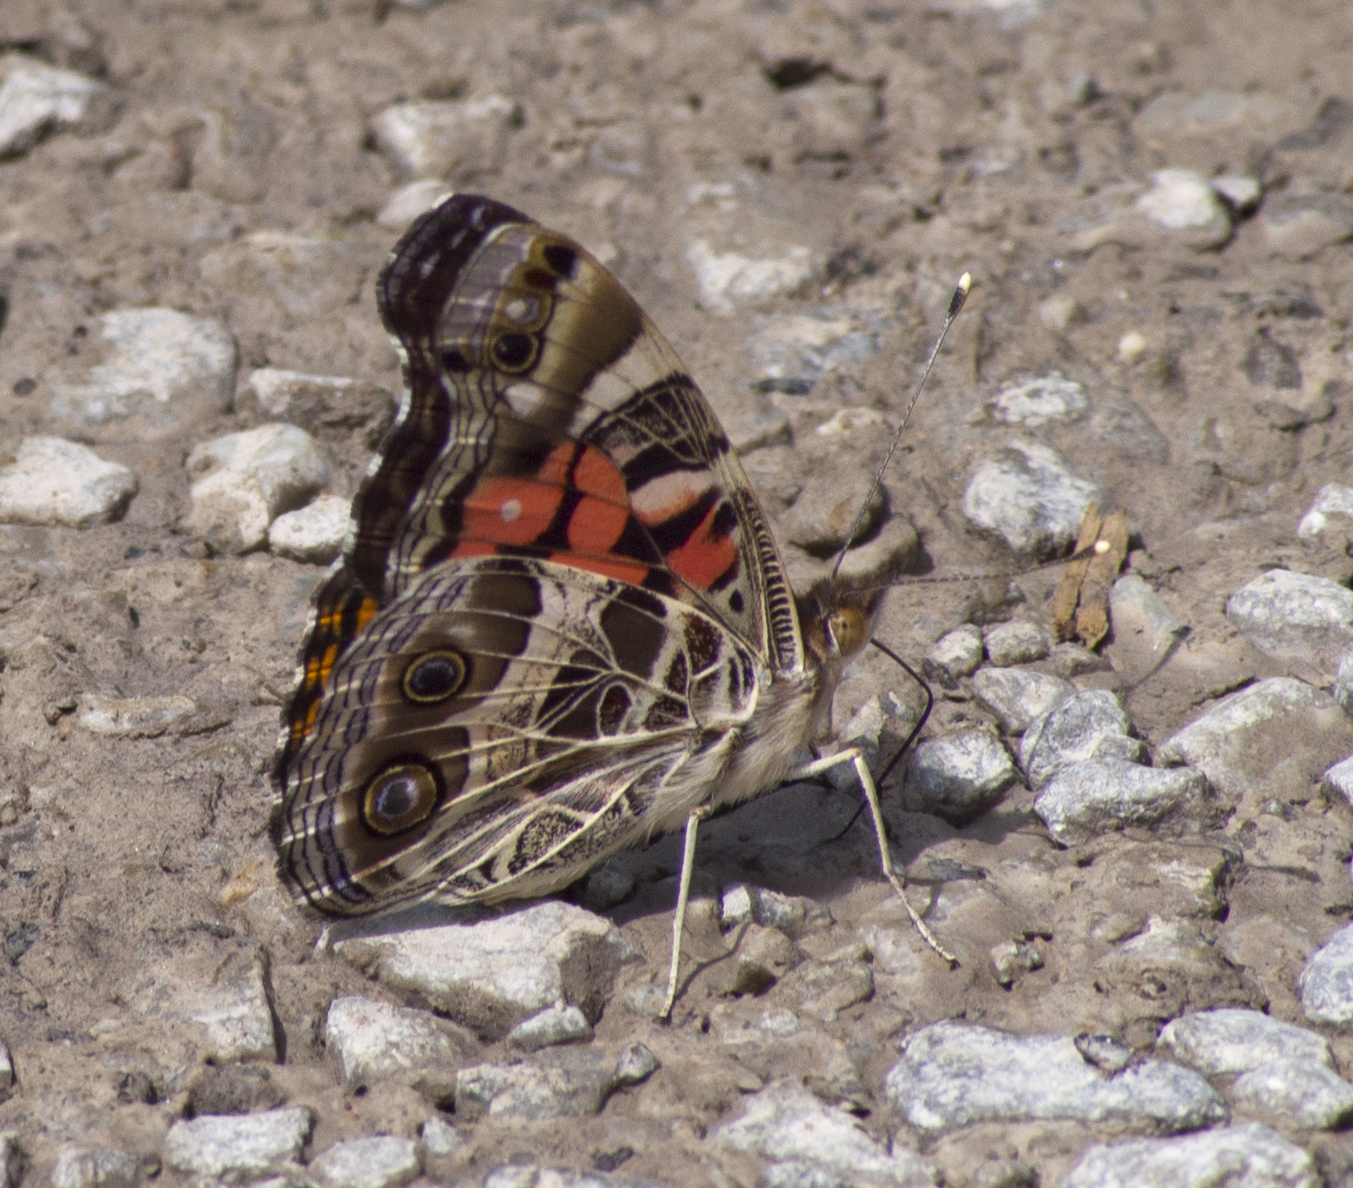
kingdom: Animalia
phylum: Arthropoda
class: Insecta
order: Lepidoptera
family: Nymphalidae
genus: Vanessa
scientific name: Vanessa virginiensis
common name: American lady
